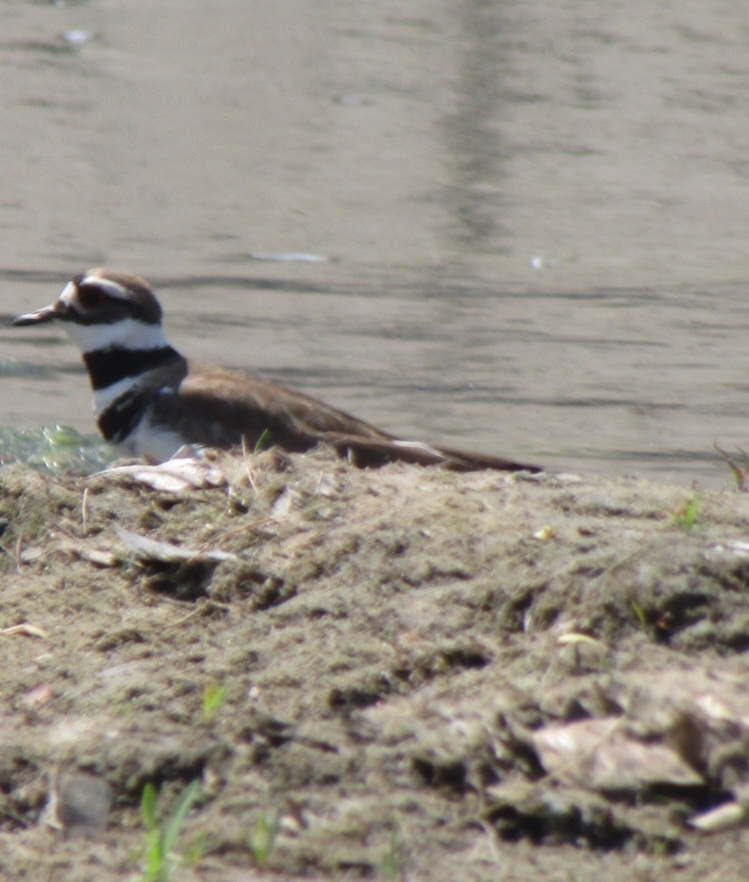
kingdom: Animalia
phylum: Chordata
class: Aves
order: Charadriiformes
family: Charadriidae
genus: Charadrius
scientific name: Charadrius vociferus
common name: Killdeer
